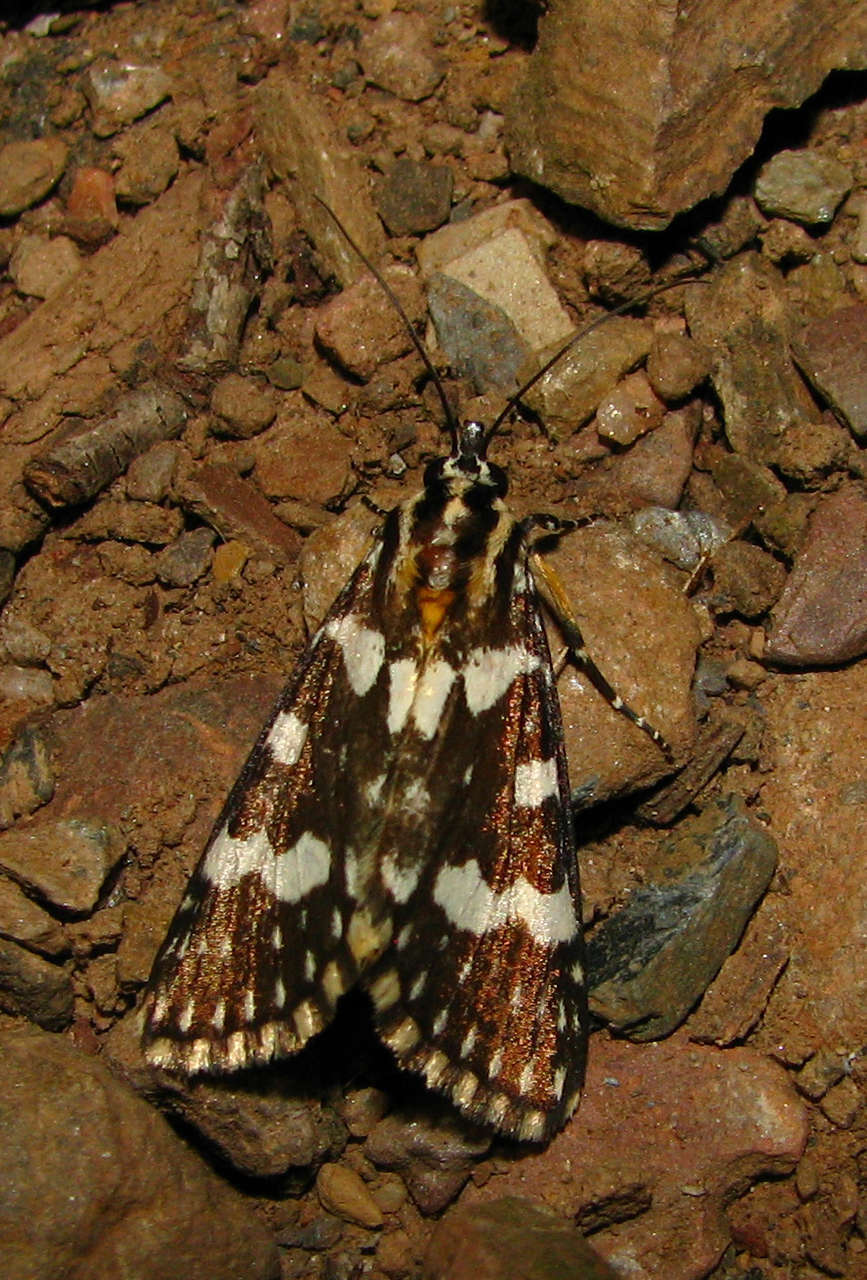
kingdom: Animalia
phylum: Arthropoda
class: Insecta
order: Lepidoptera
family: Noctuidae
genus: Ipanica
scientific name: Ipanica cornigera
